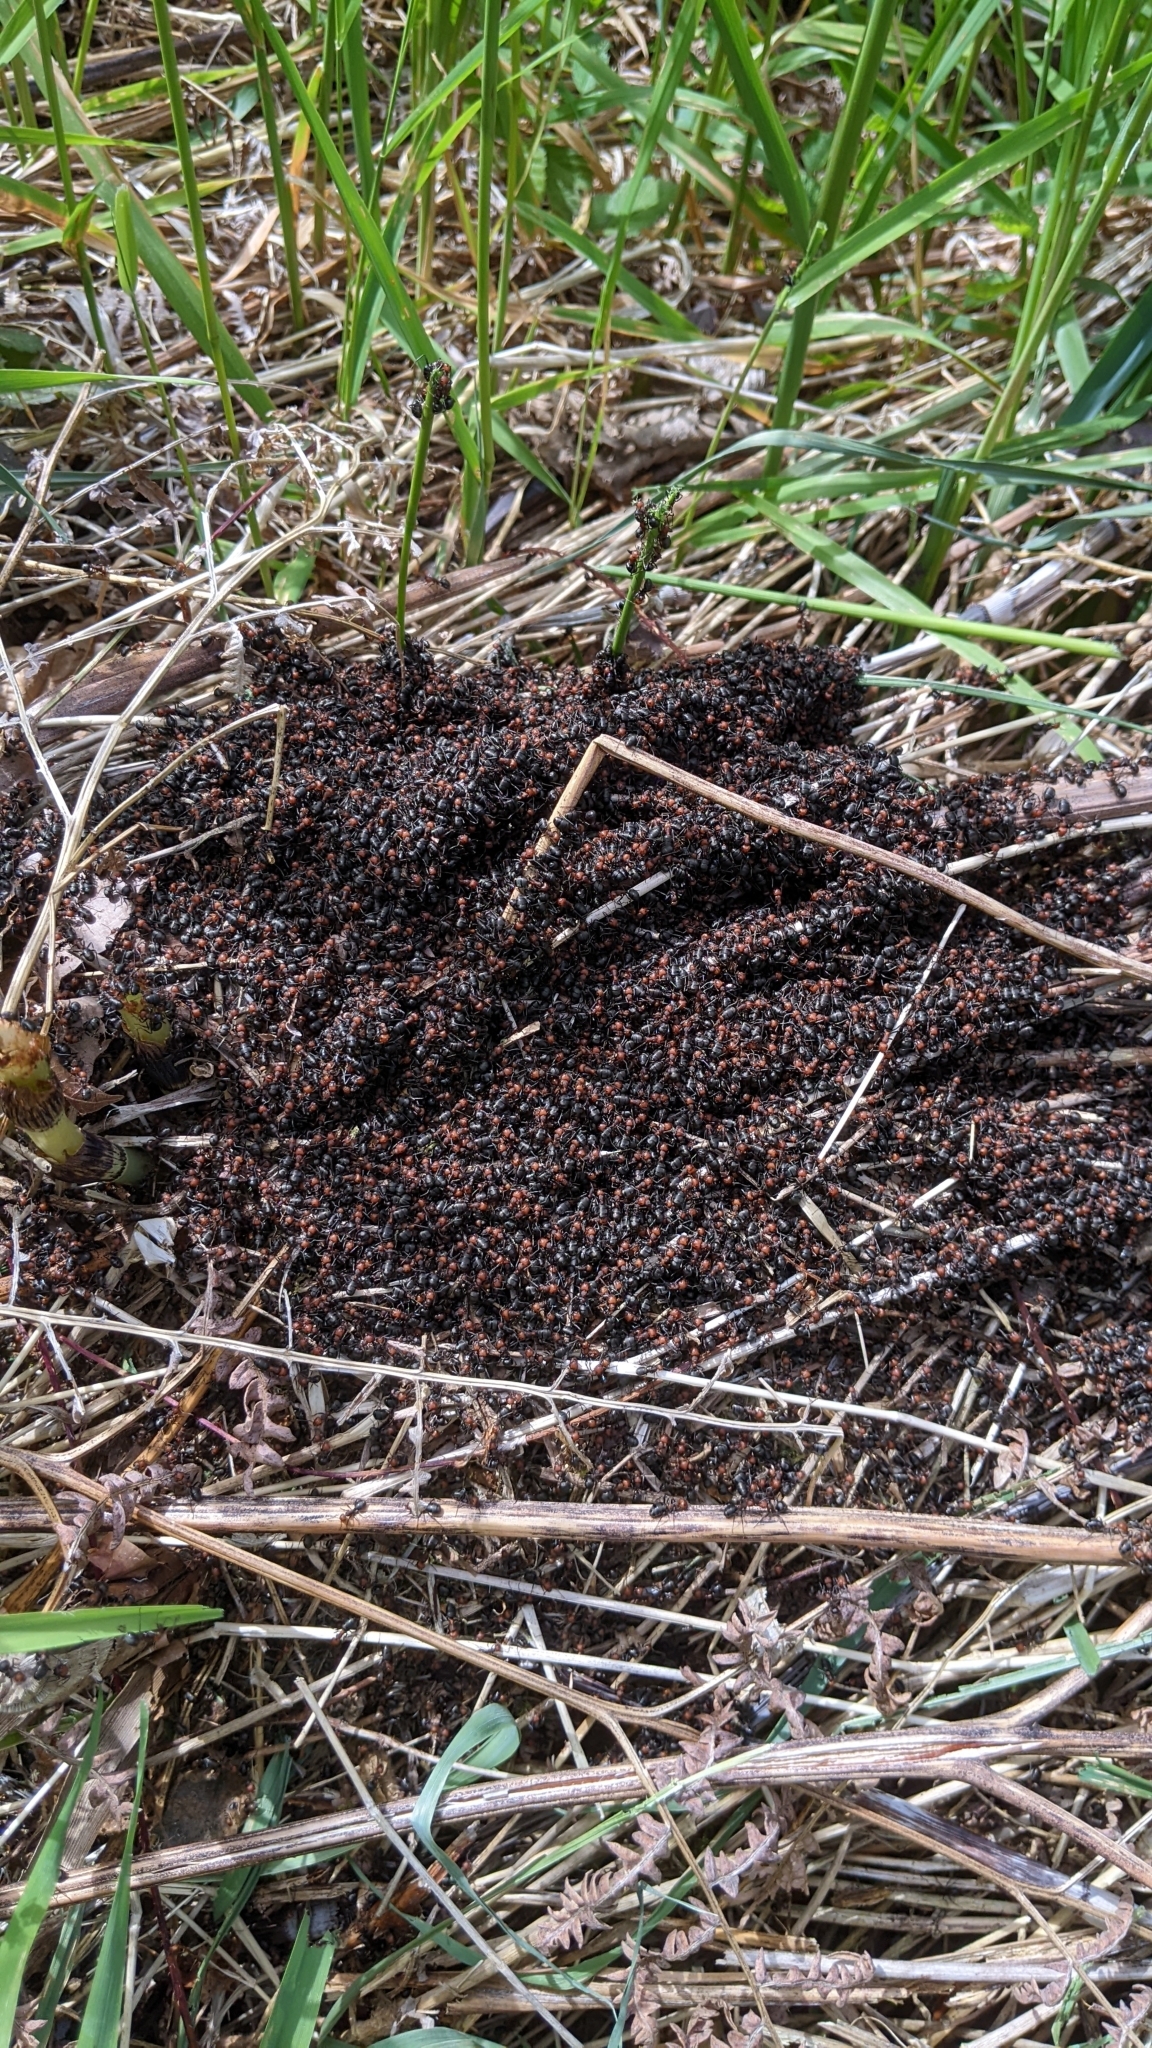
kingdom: Animalia
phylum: Arthropoda
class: Insecta
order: Hymenoptera
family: Formicidae
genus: Formica
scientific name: Formica obscuripes
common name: Western thatching ant
